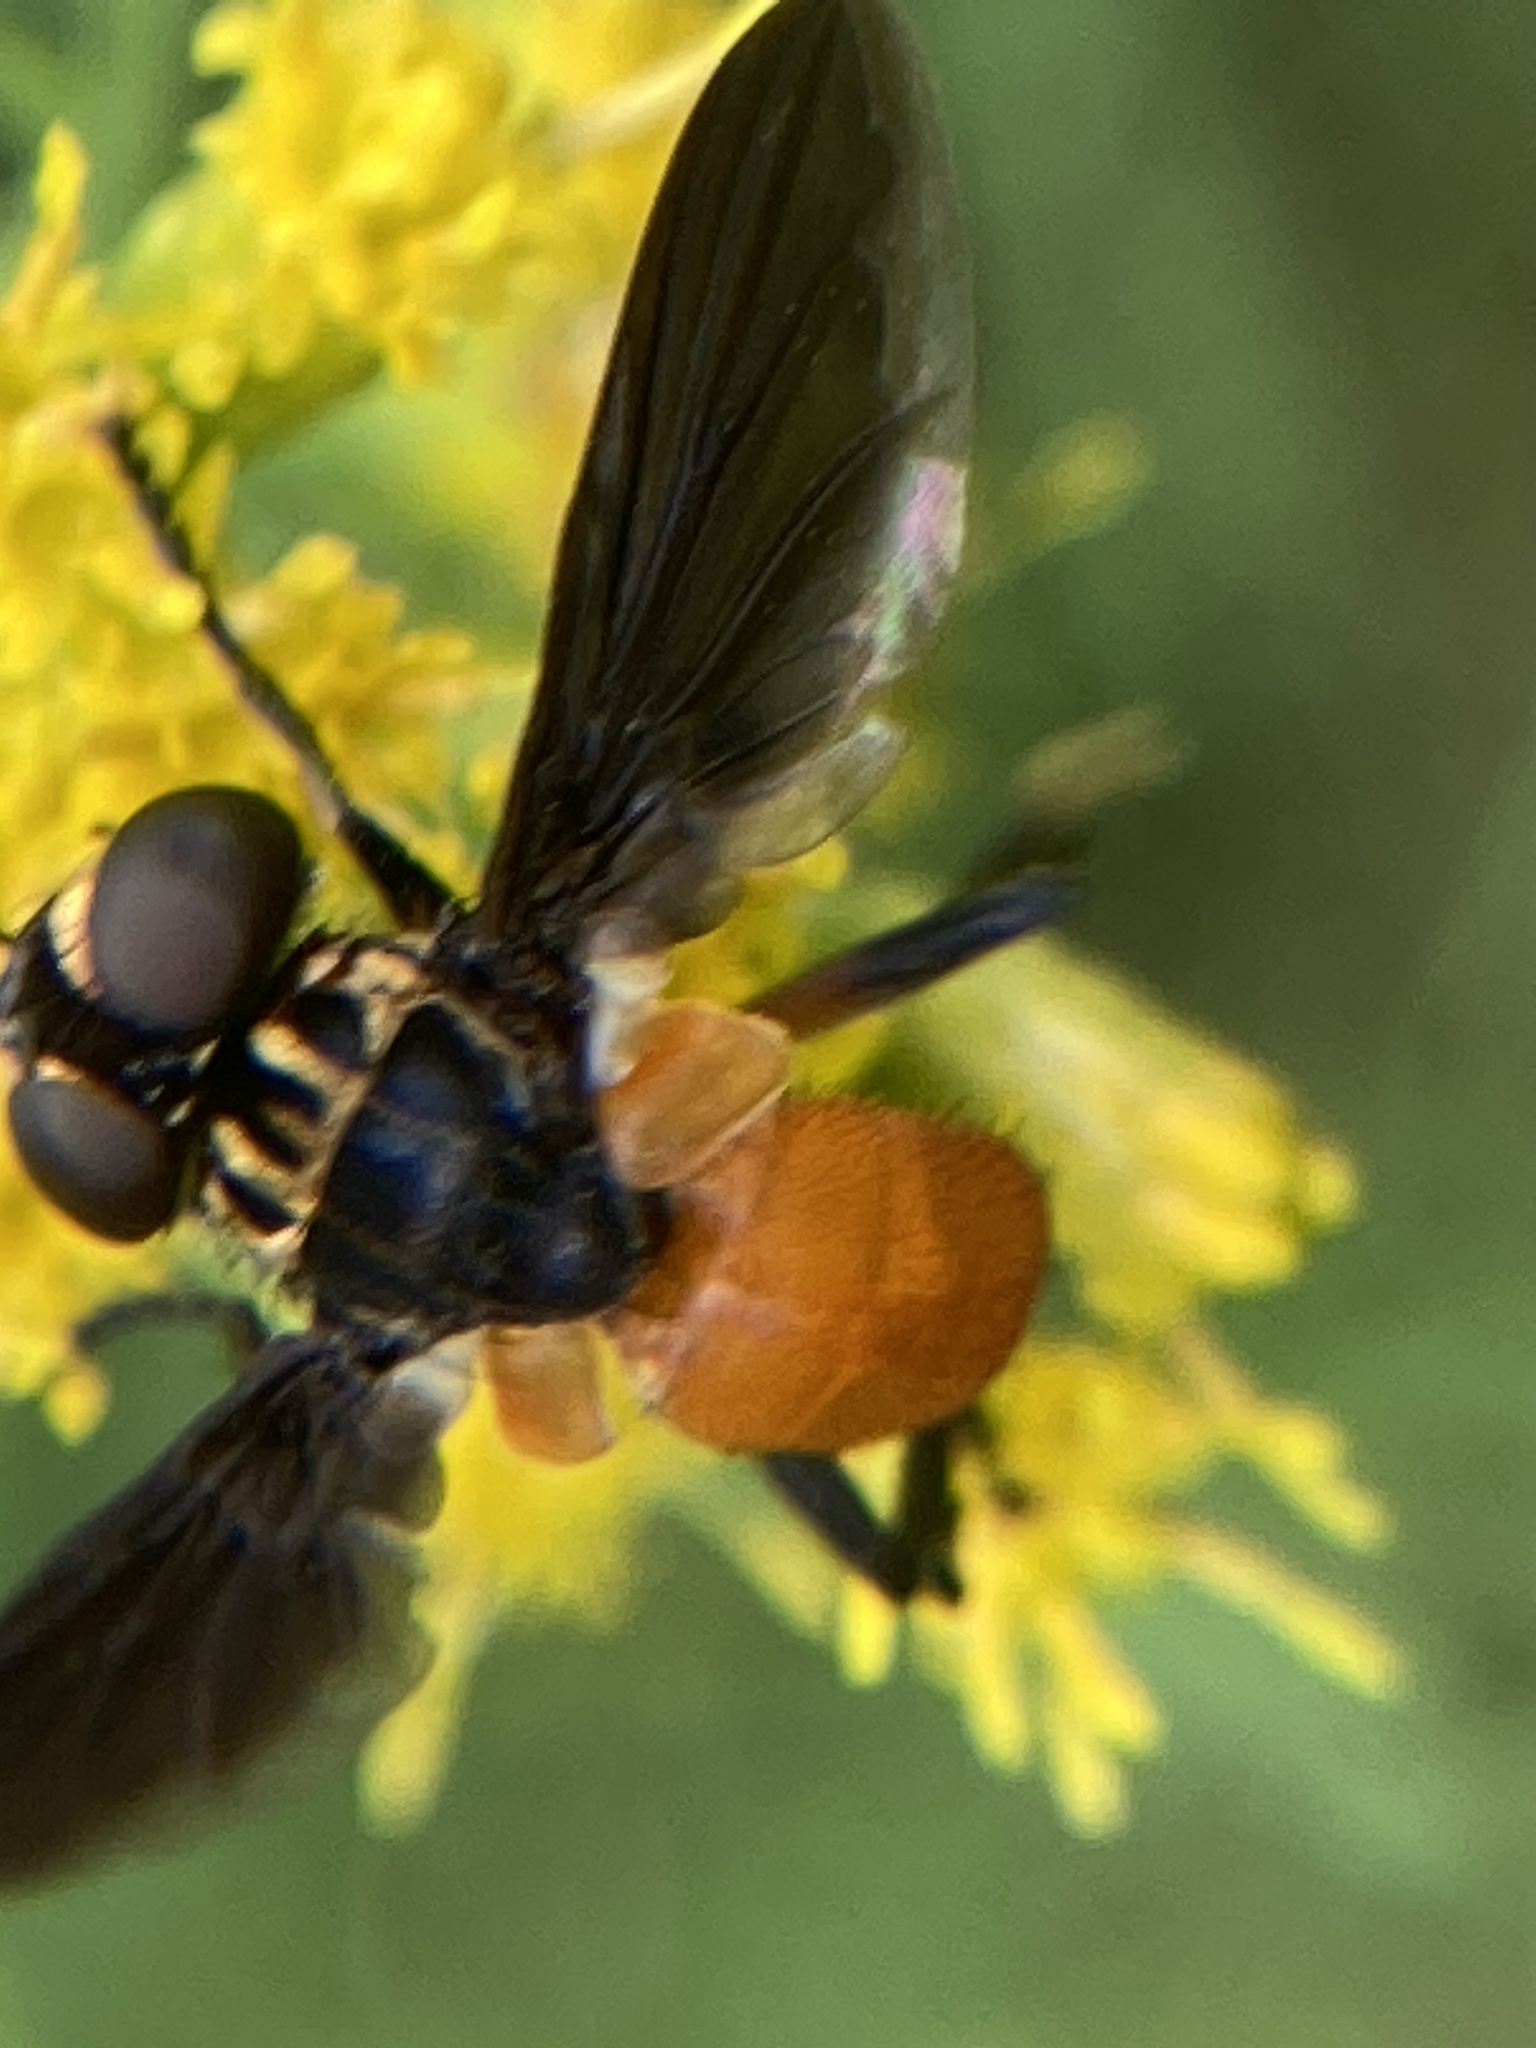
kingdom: Animalia
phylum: Arthropoda
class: Insecta
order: Diptera
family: Tachinidae
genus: Trichopoda
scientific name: Trichopoda pennipes
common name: Tachinid fly
